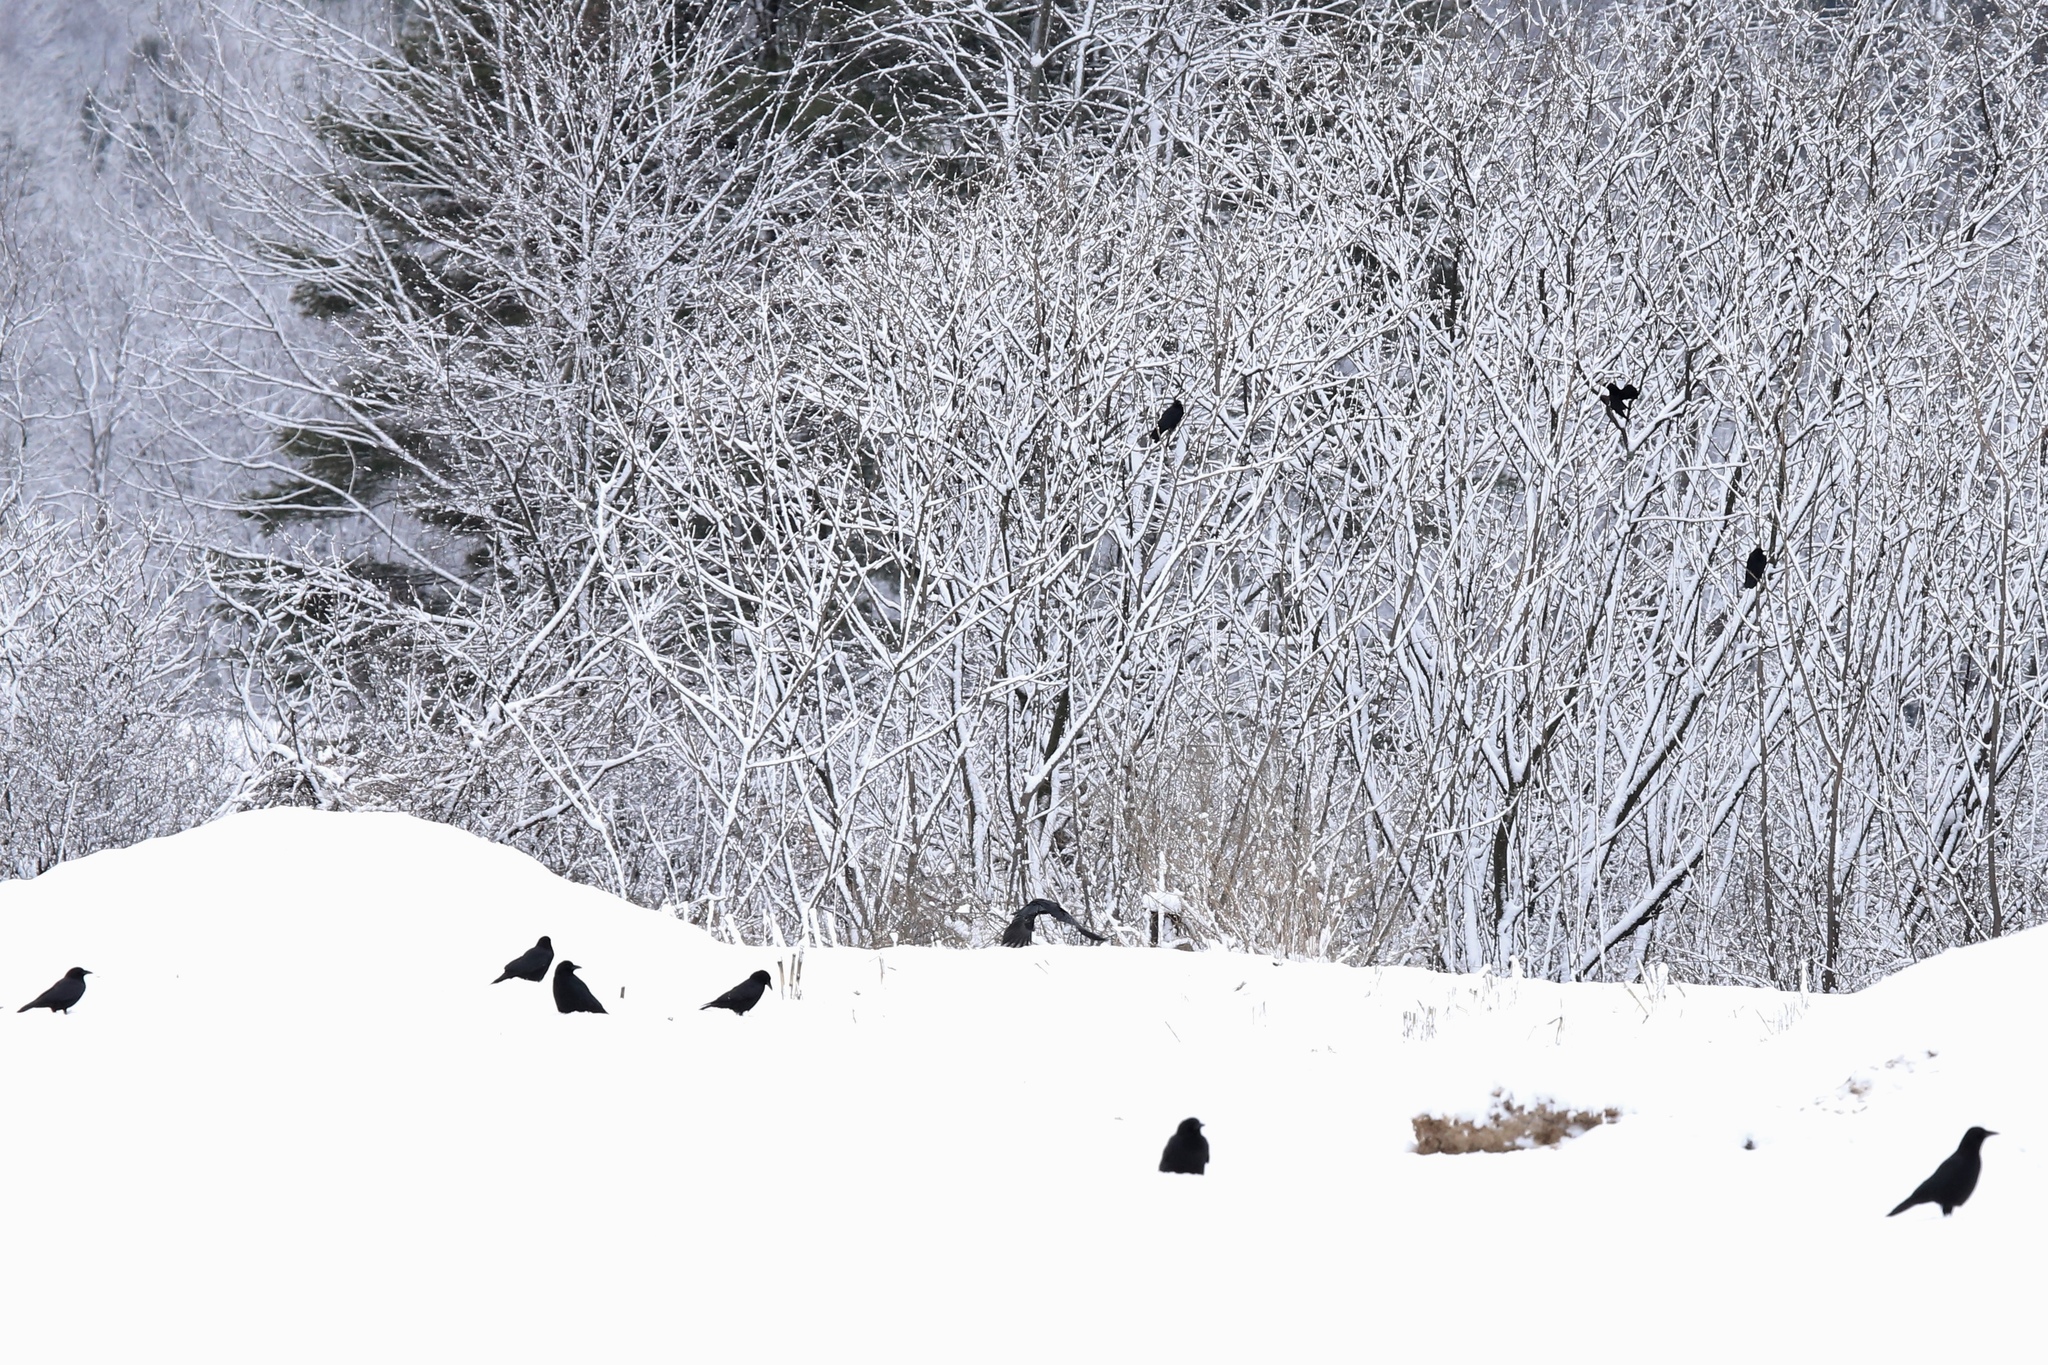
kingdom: Animalia
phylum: Chordata
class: Aves
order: Passeriformes
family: Corvidae
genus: Corvus
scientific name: Corvus brachyrhynchos
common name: American crow
